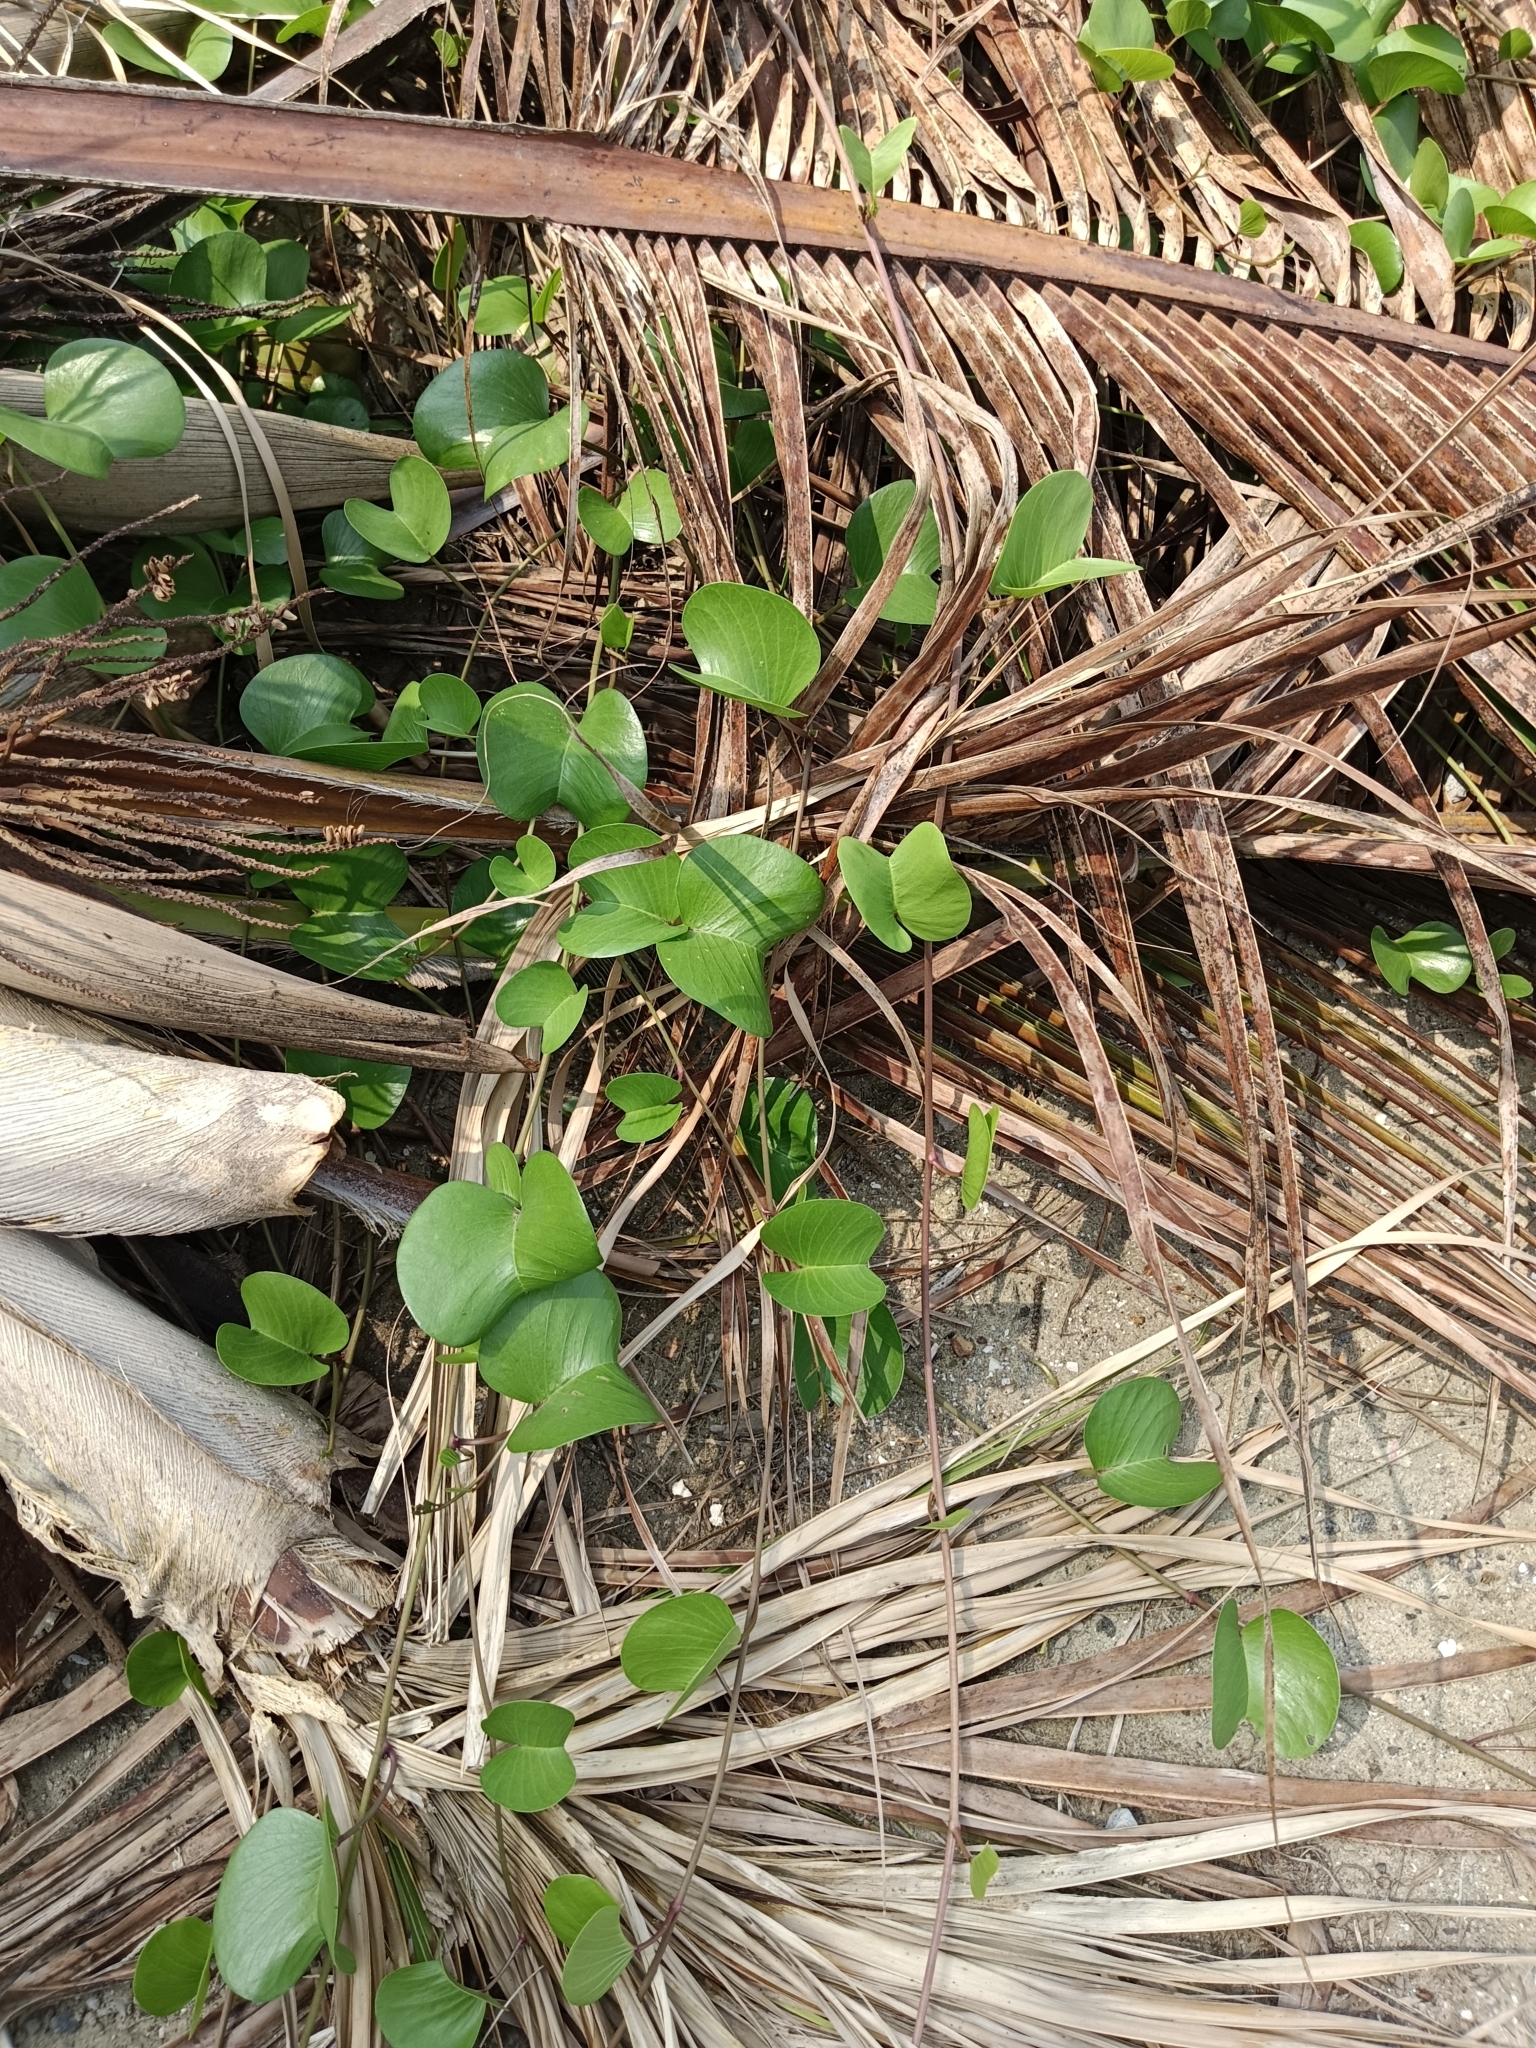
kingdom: Plantae
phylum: Tracheophyta
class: Magnoliopsida
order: Solanales
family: Convolvulaceae
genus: Ipomoea
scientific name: Ipomoea pes-caprae
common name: Beach morning glory
